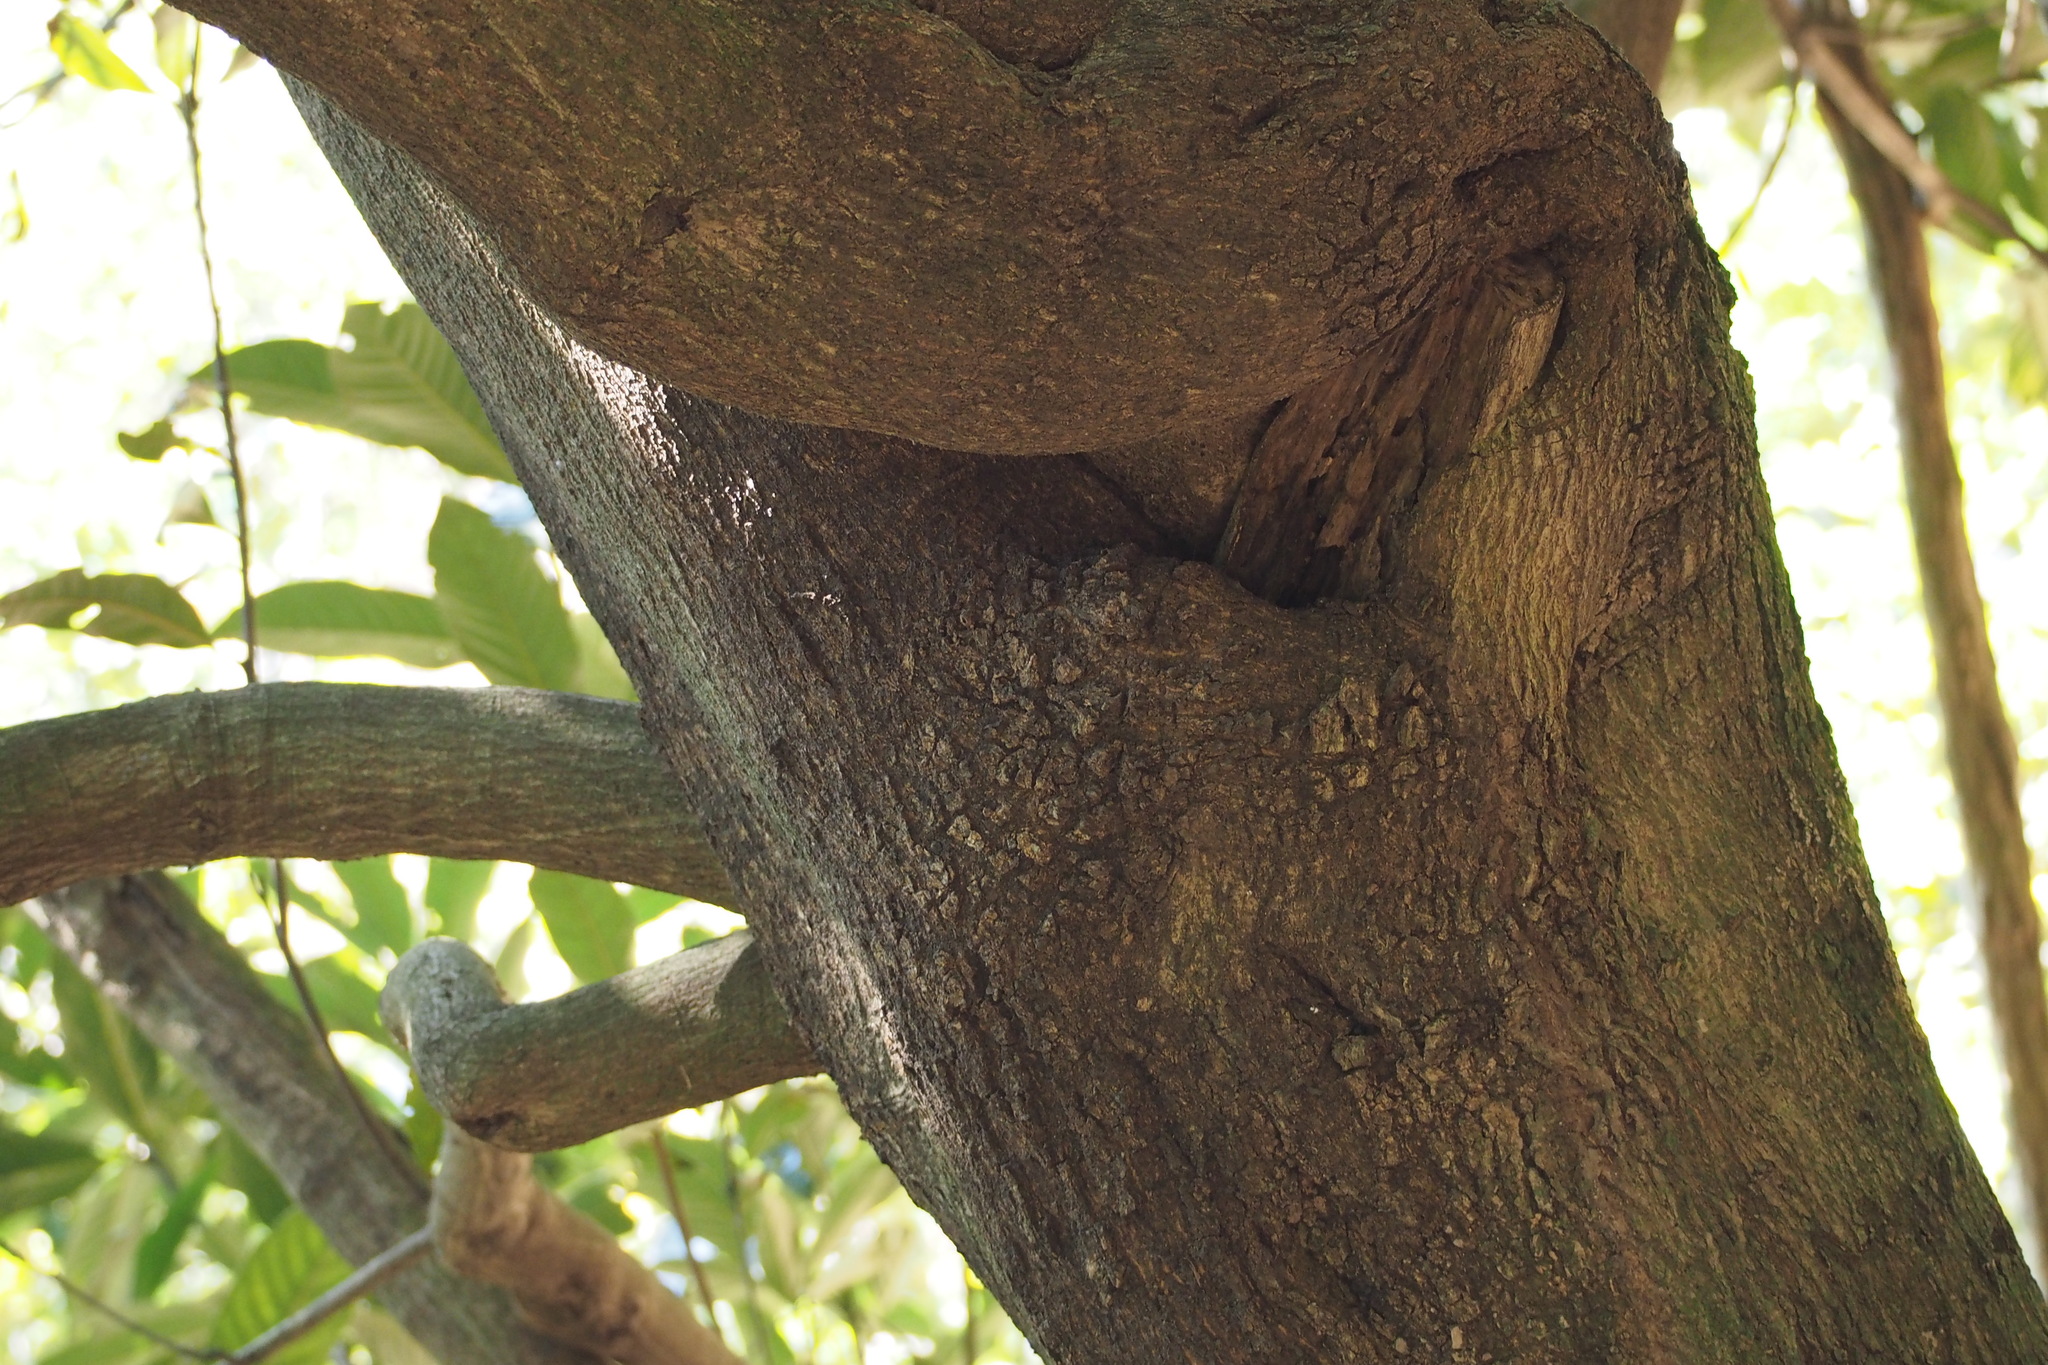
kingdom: Plantae
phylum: Tracheophyta
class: Magnoliopsida
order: Fagales
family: Fagaceae
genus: Lithocarpus
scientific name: Lithocarpus edulis
